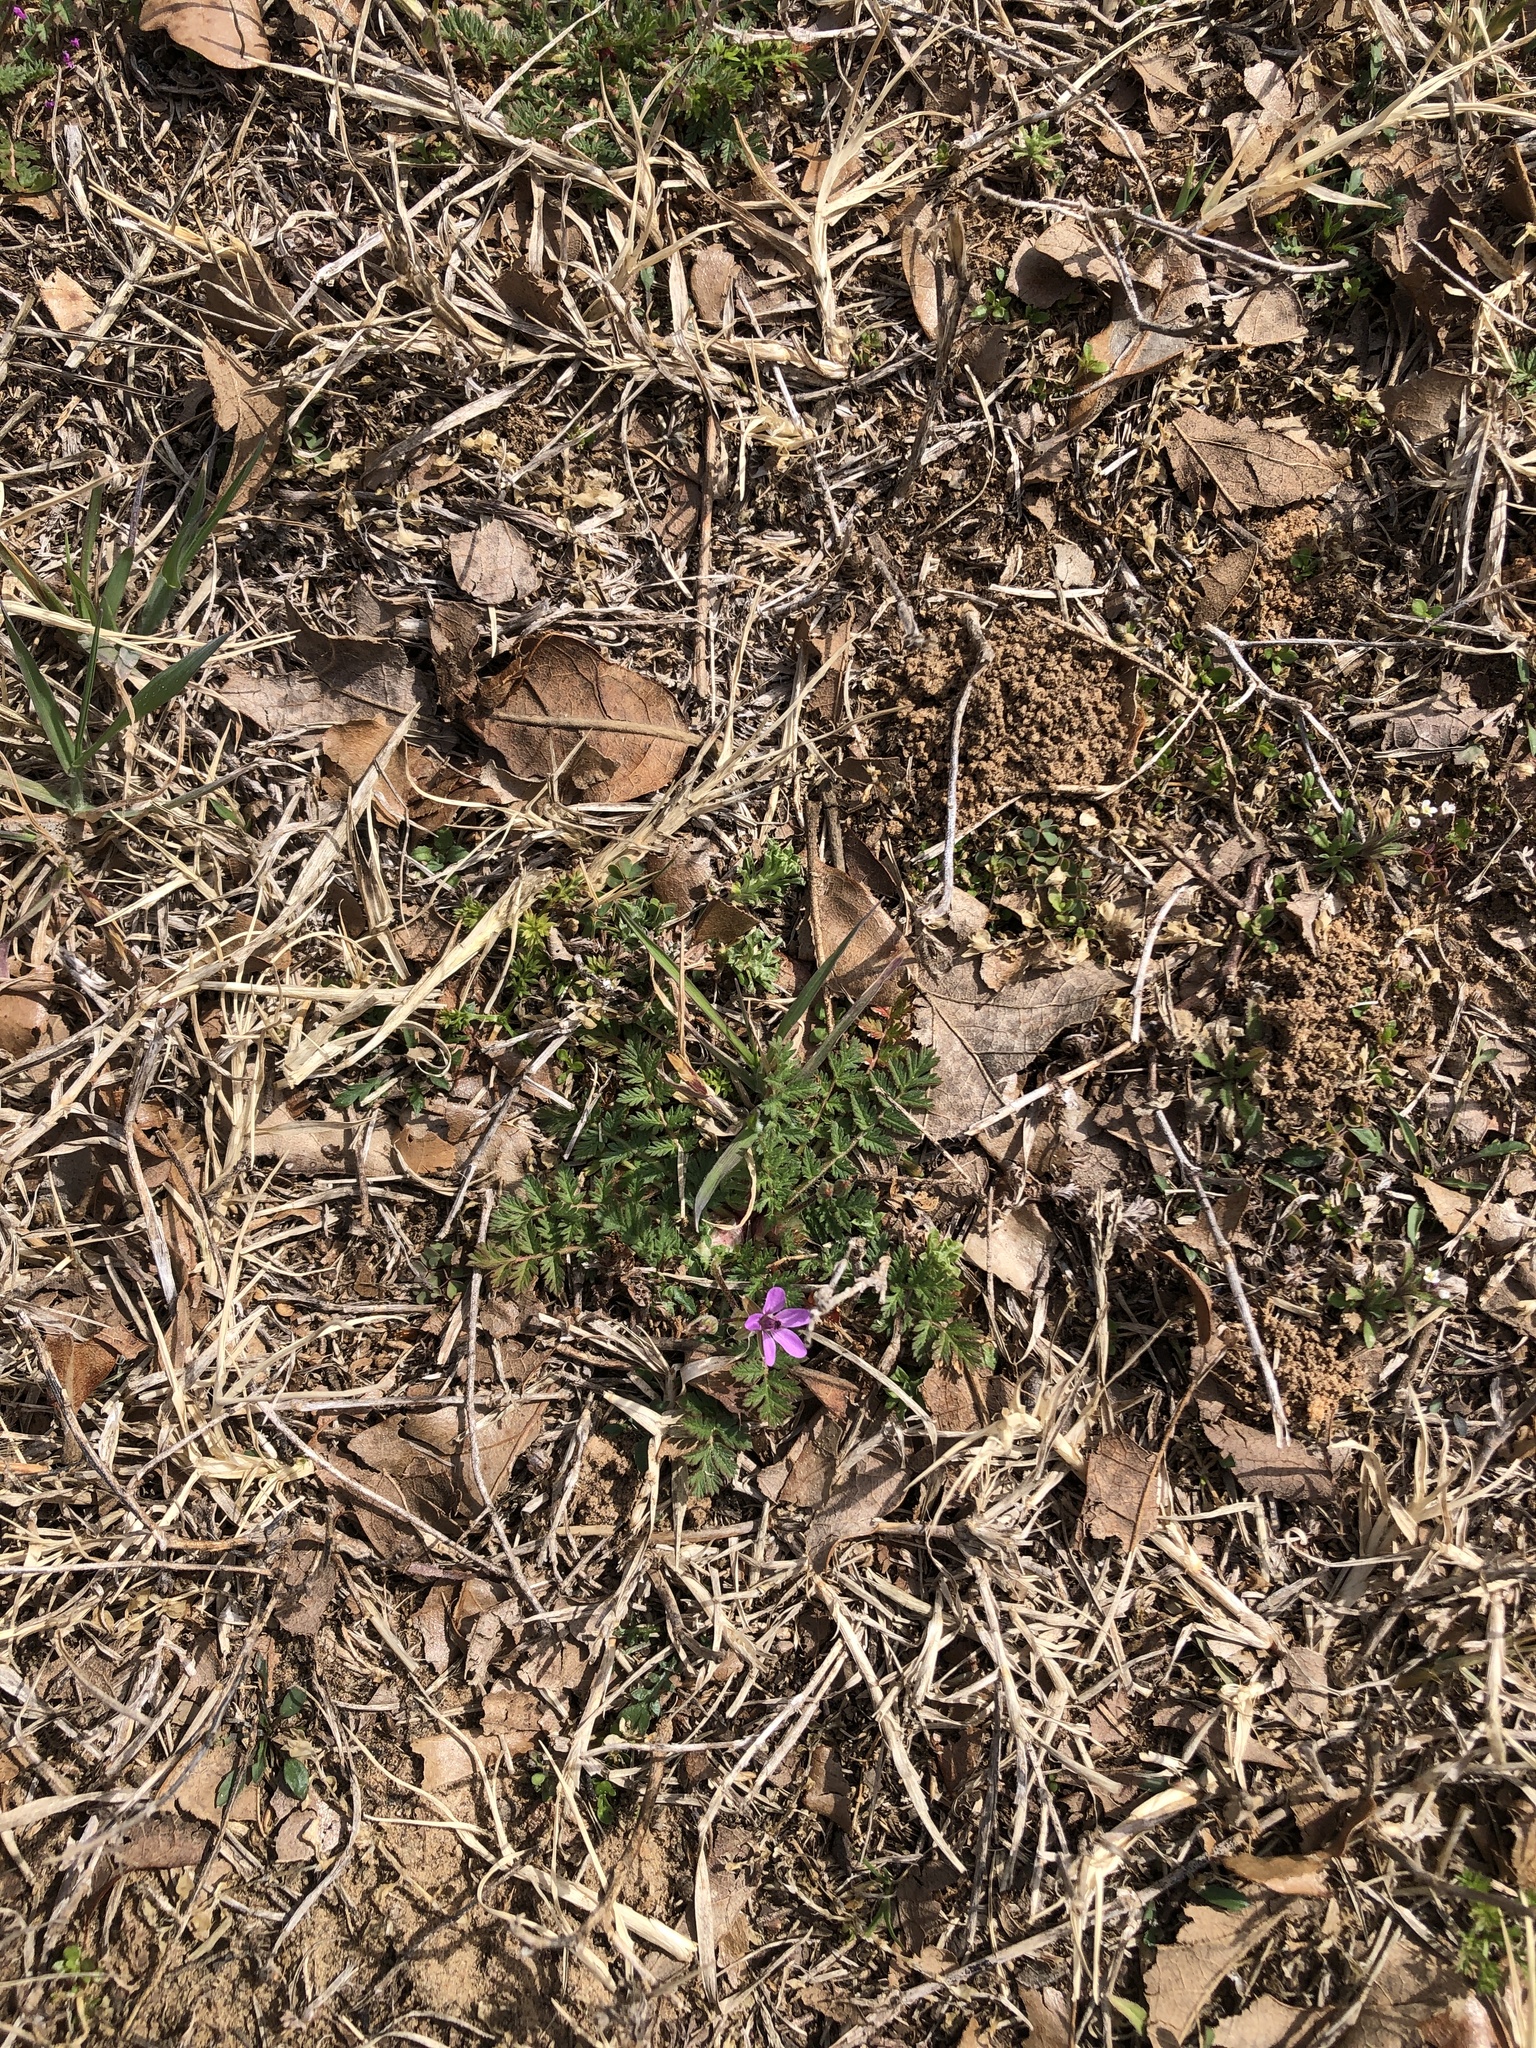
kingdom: Plantae
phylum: Tracheophyta
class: Magnoliopsida
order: Geraniales
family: Geraniaceae
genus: Erodium
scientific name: Erodium cicutarium
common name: Common stork's-bill
